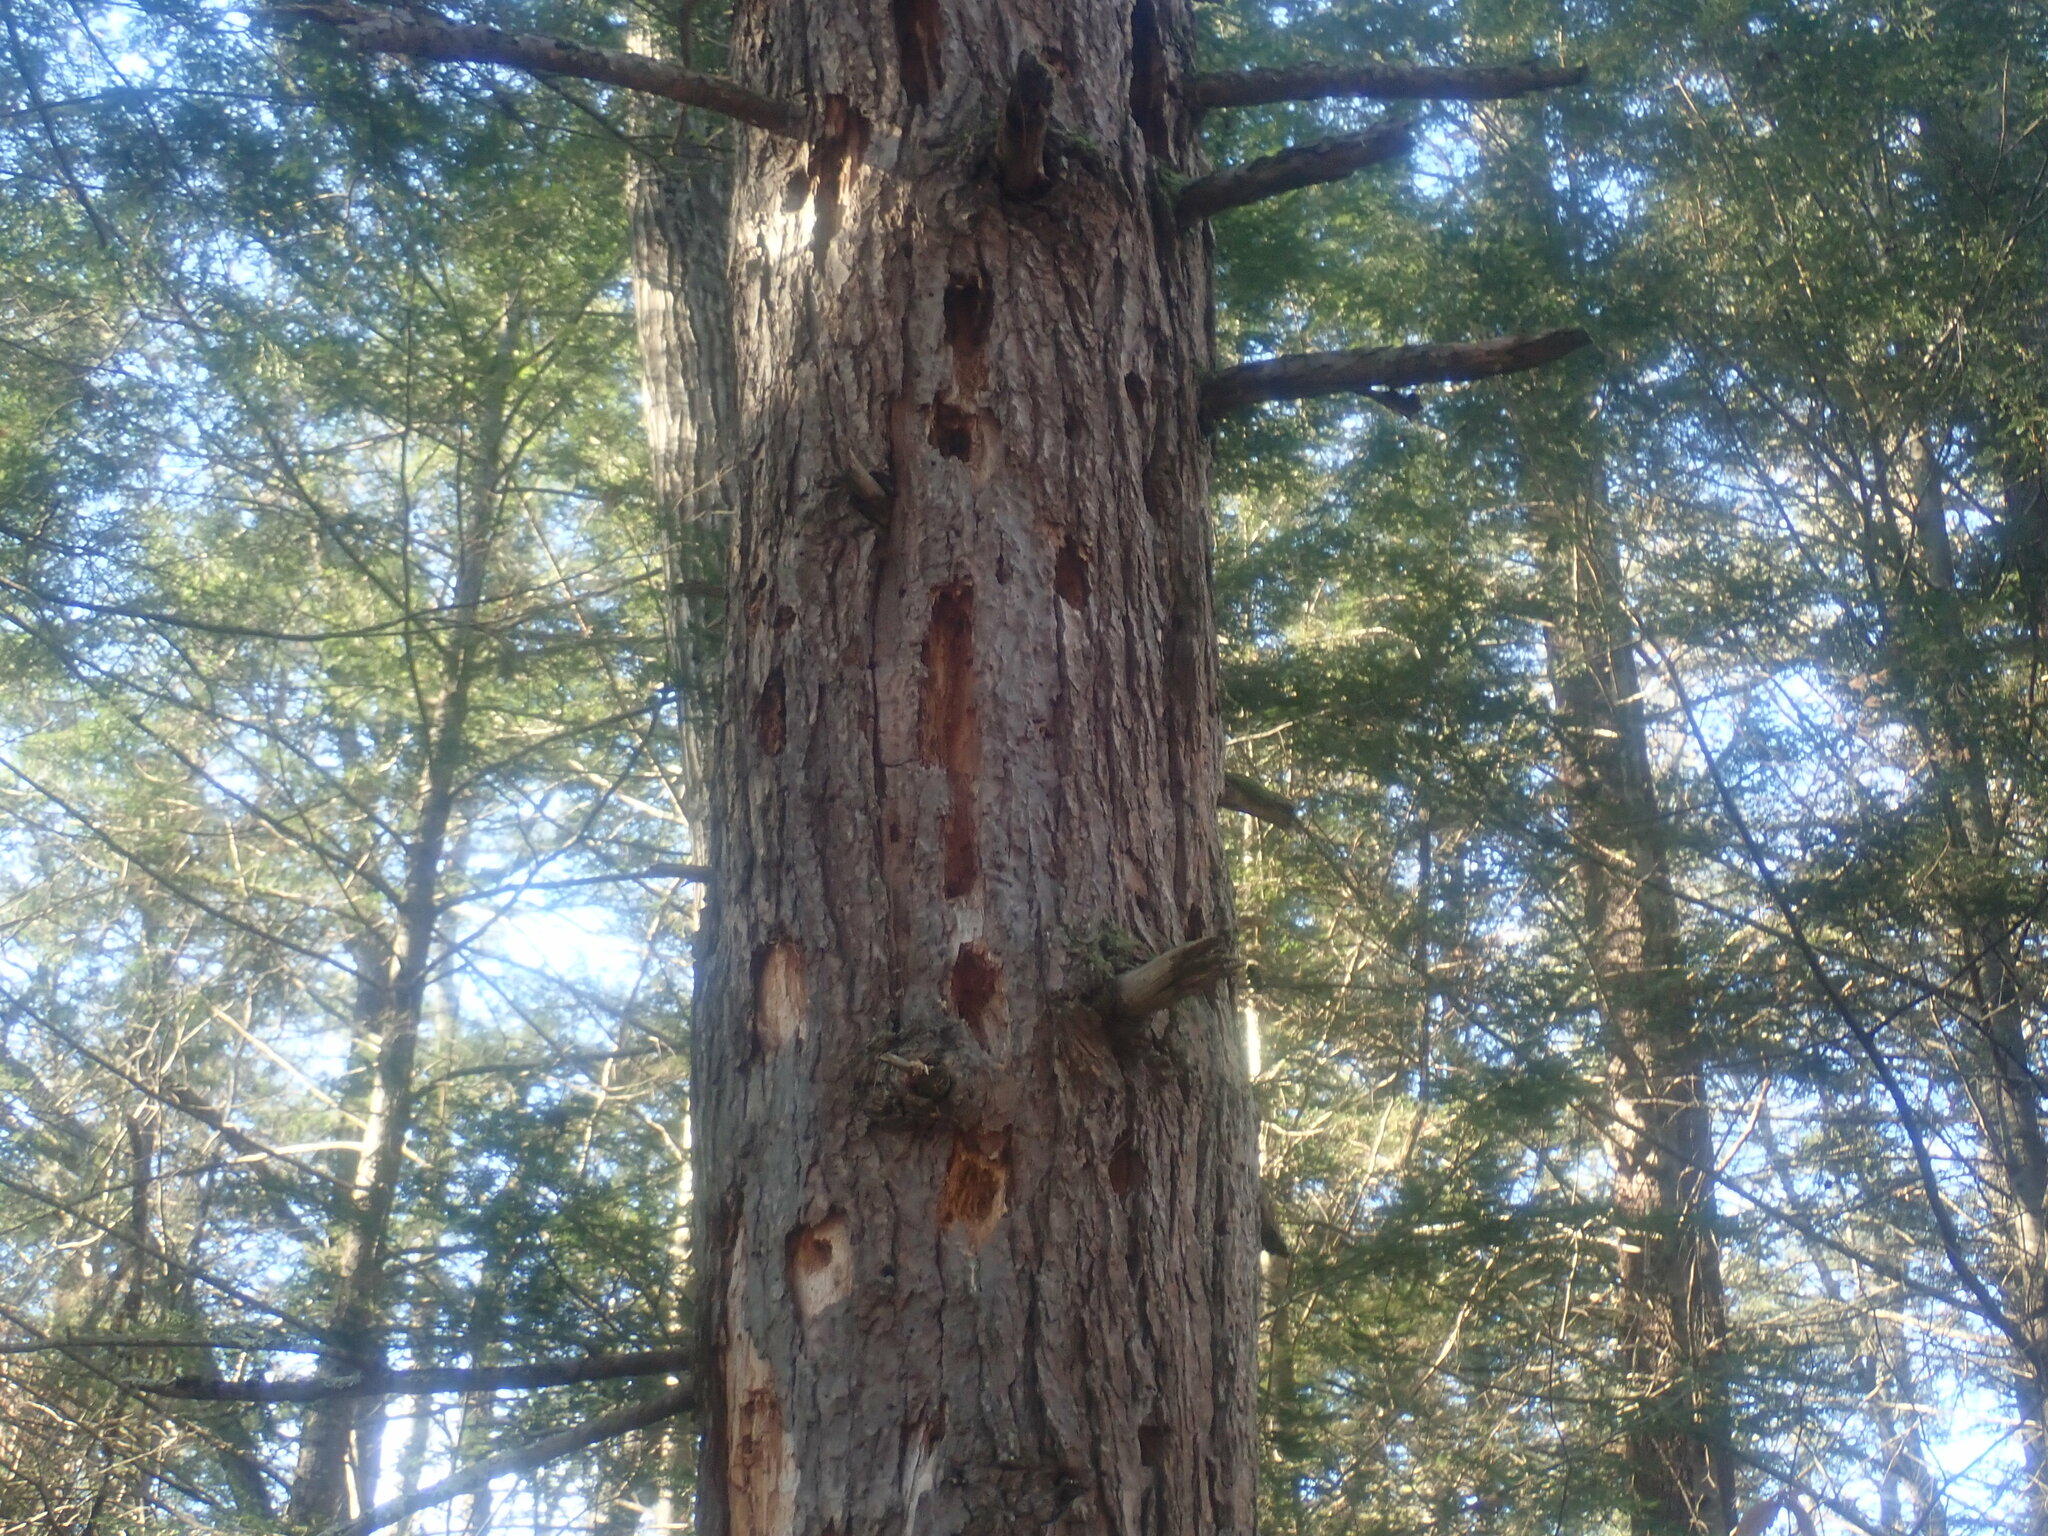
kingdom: Animalia
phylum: Chordata
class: Aves
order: Piciformes
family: Picidae
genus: Dryocopus
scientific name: Dryocopus pileatus
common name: Pileated woodpecker
